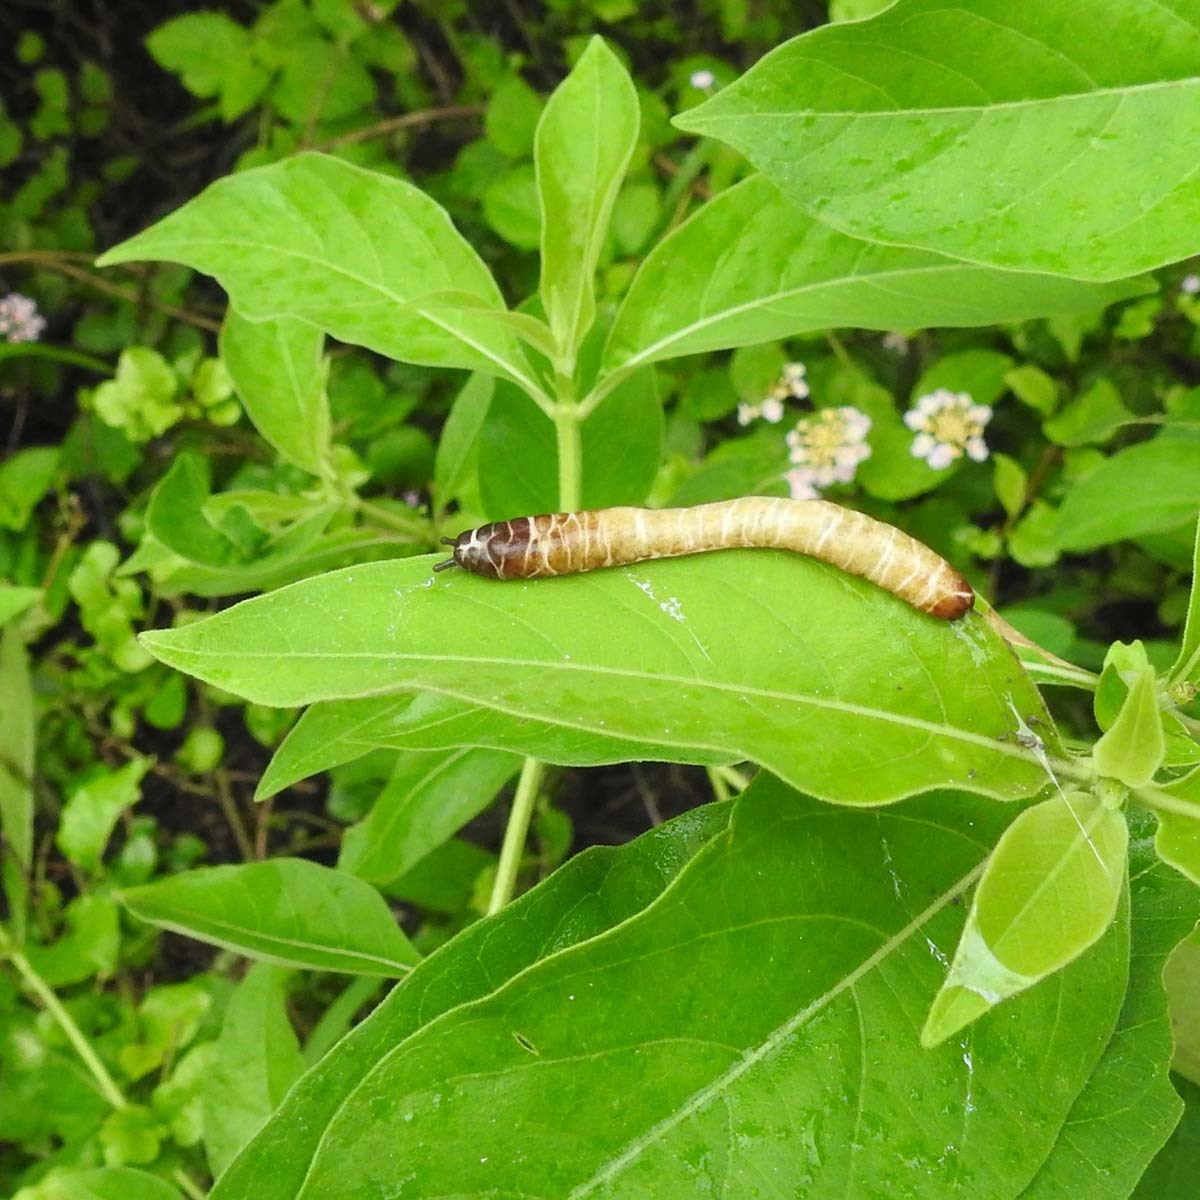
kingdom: Animalia
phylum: Mollusca
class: Gastropoda
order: Systellommatophora
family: Veronicellidae
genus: Laevicaulis
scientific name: Laevicaulis haroldi
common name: Caterpillar slug
